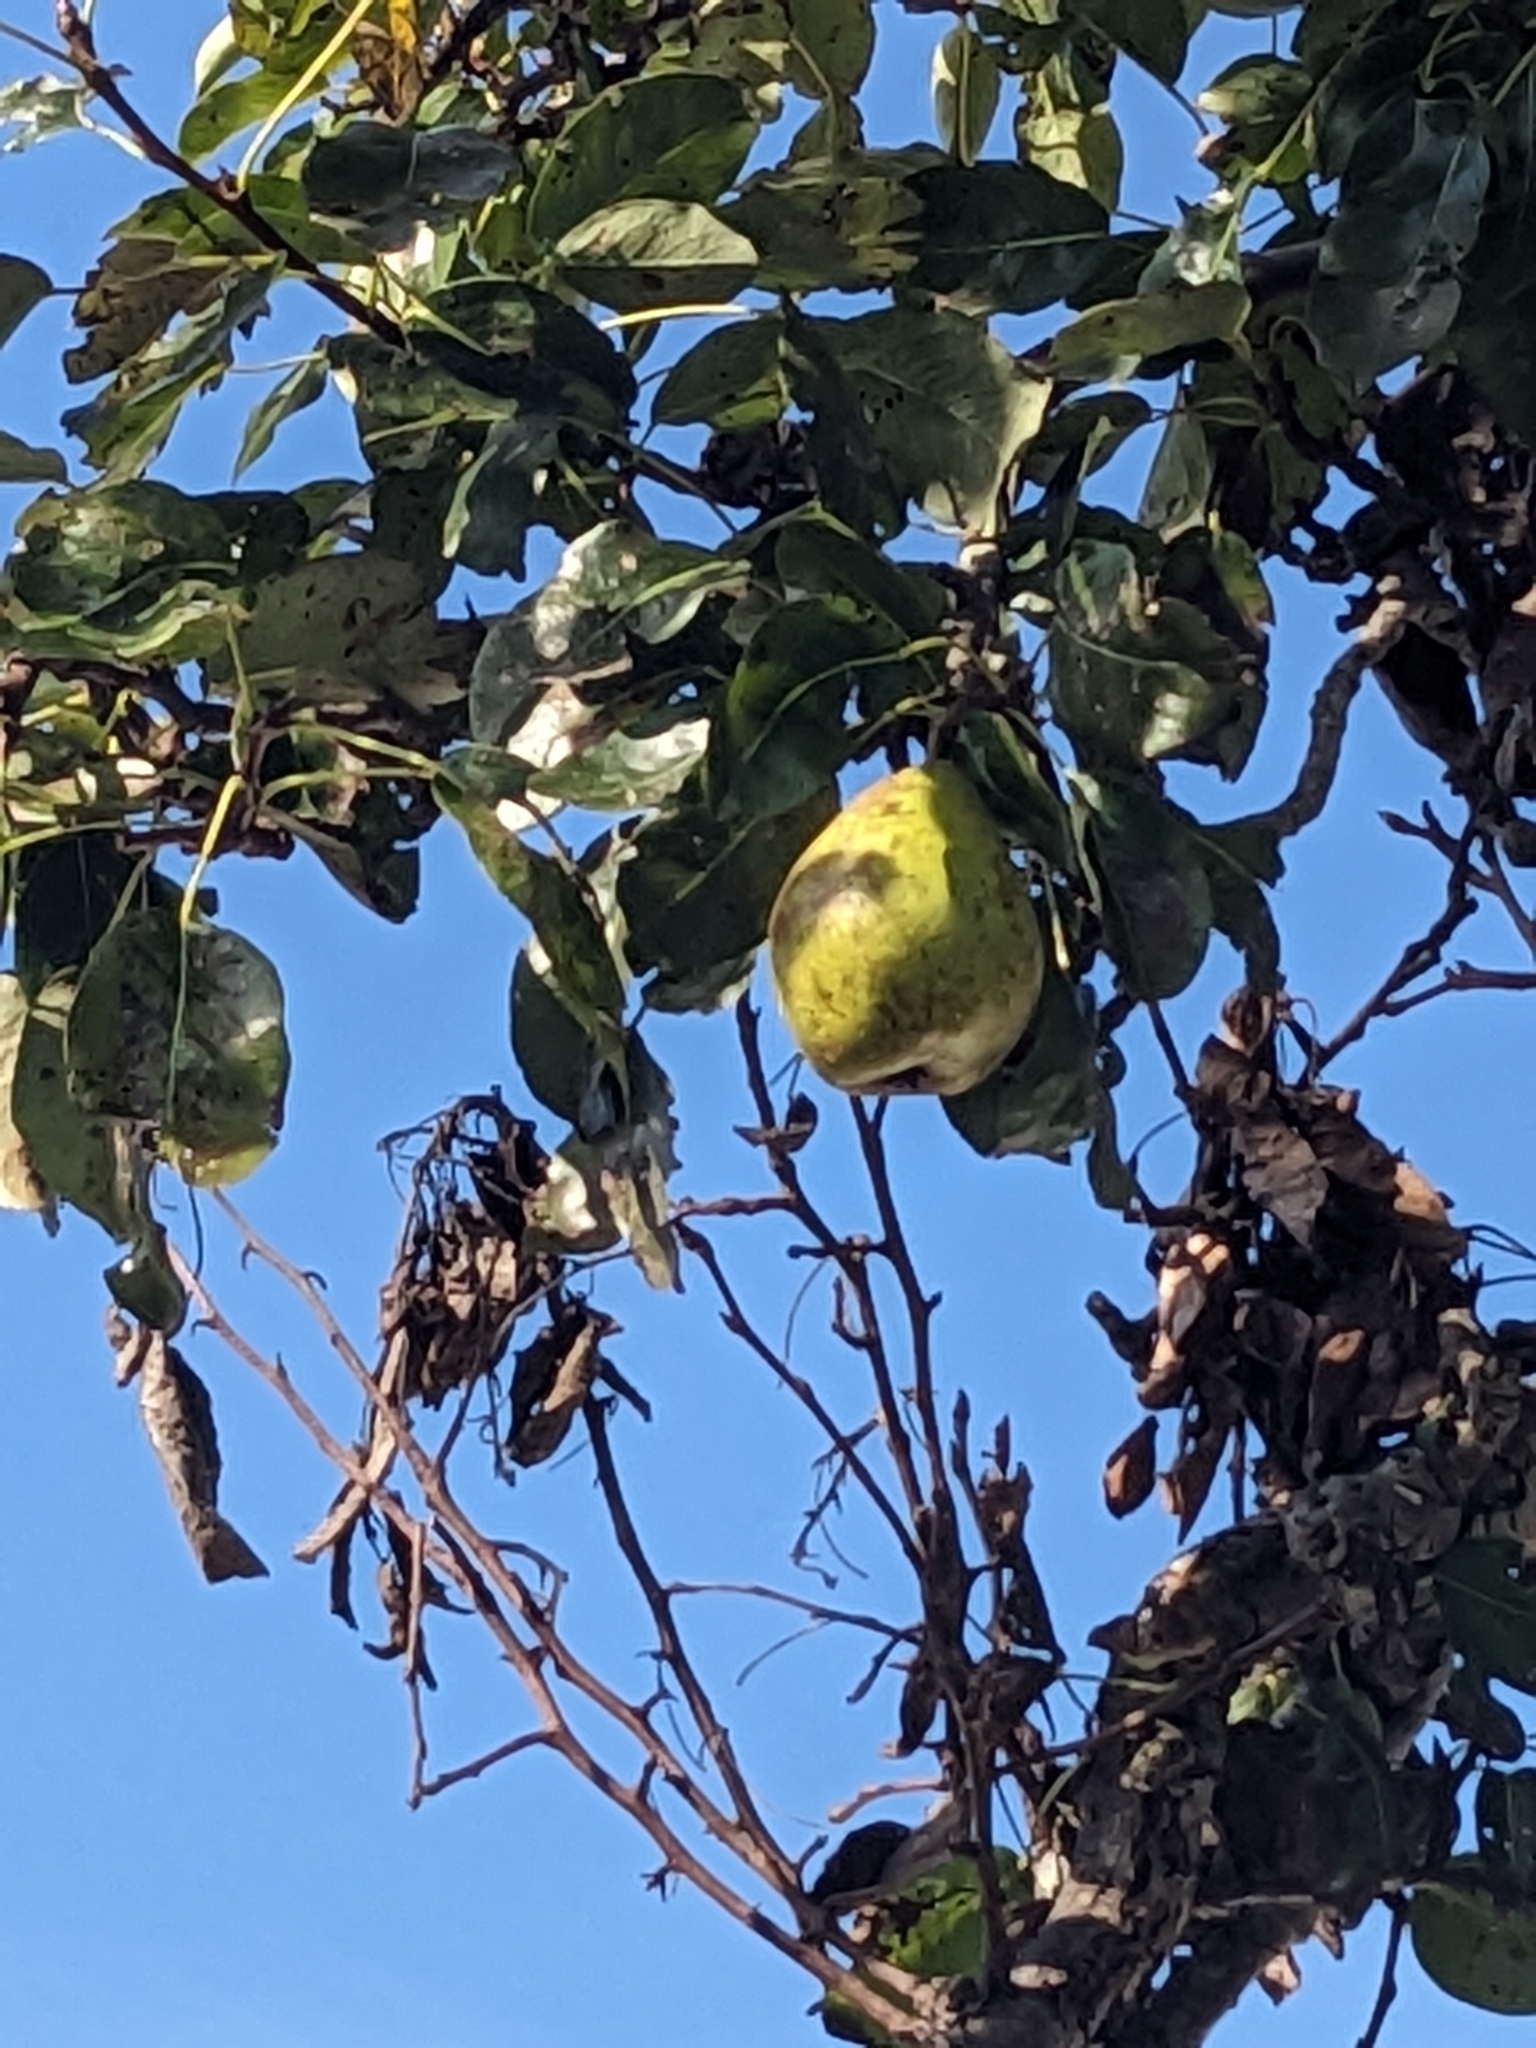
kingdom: Plantae
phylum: Tracheophyta
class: Magnoliopsida
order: Rosales
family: Rosaceae
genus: Pyrus
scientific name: Pyrus communis
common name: Pear
